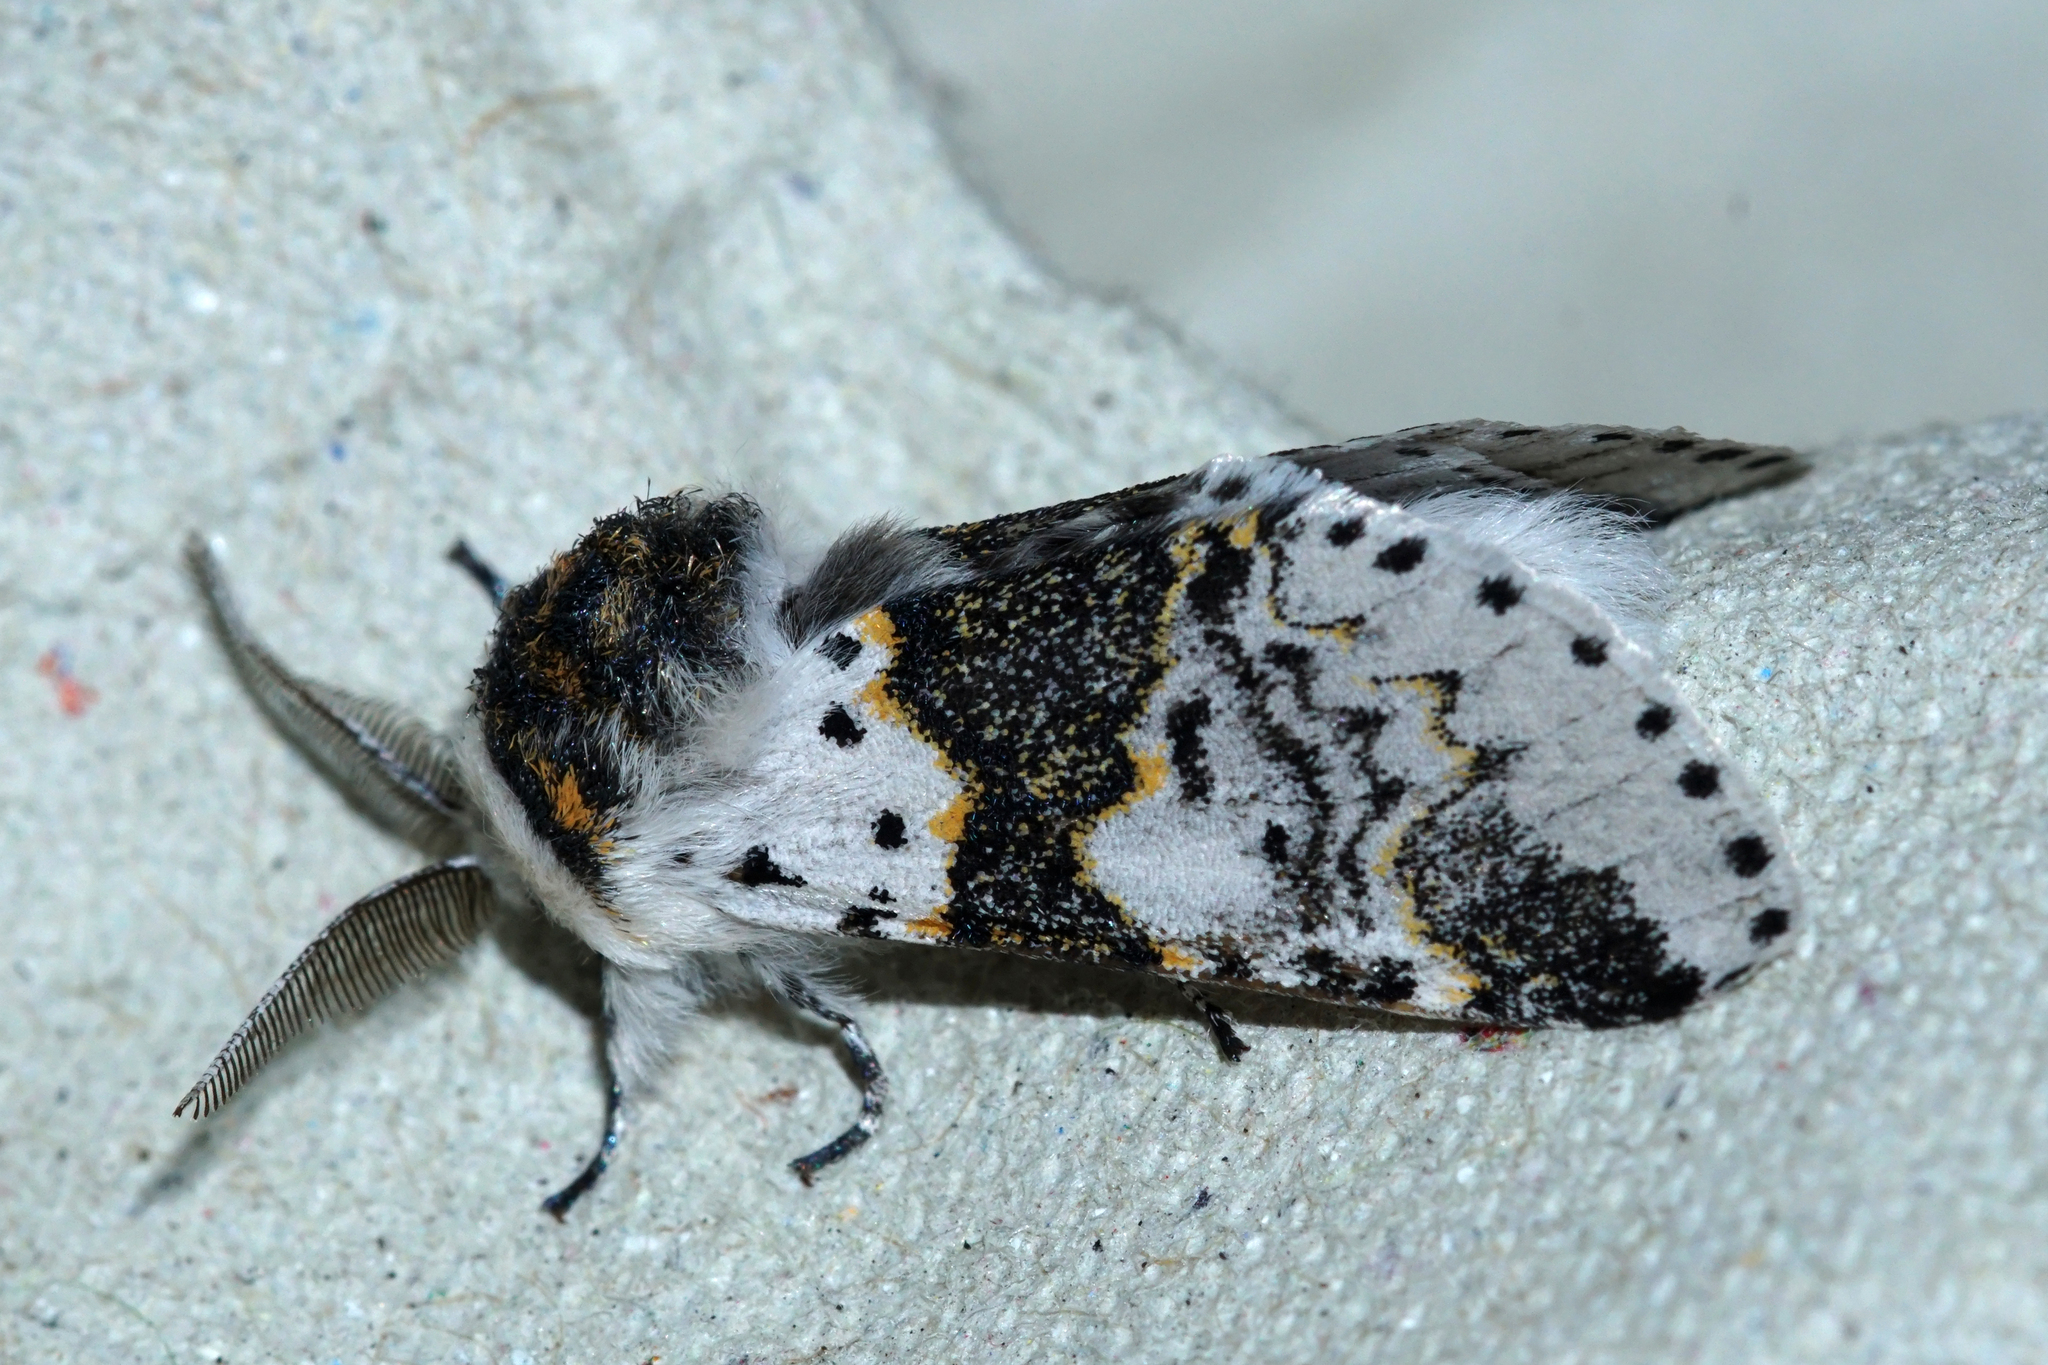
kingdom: Animalia
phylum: Arthropoda
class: Insecta
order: Lepidoptera
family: Notodontidae
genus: Furcula
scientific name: Furcula bicuspis
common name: Alder kitten
